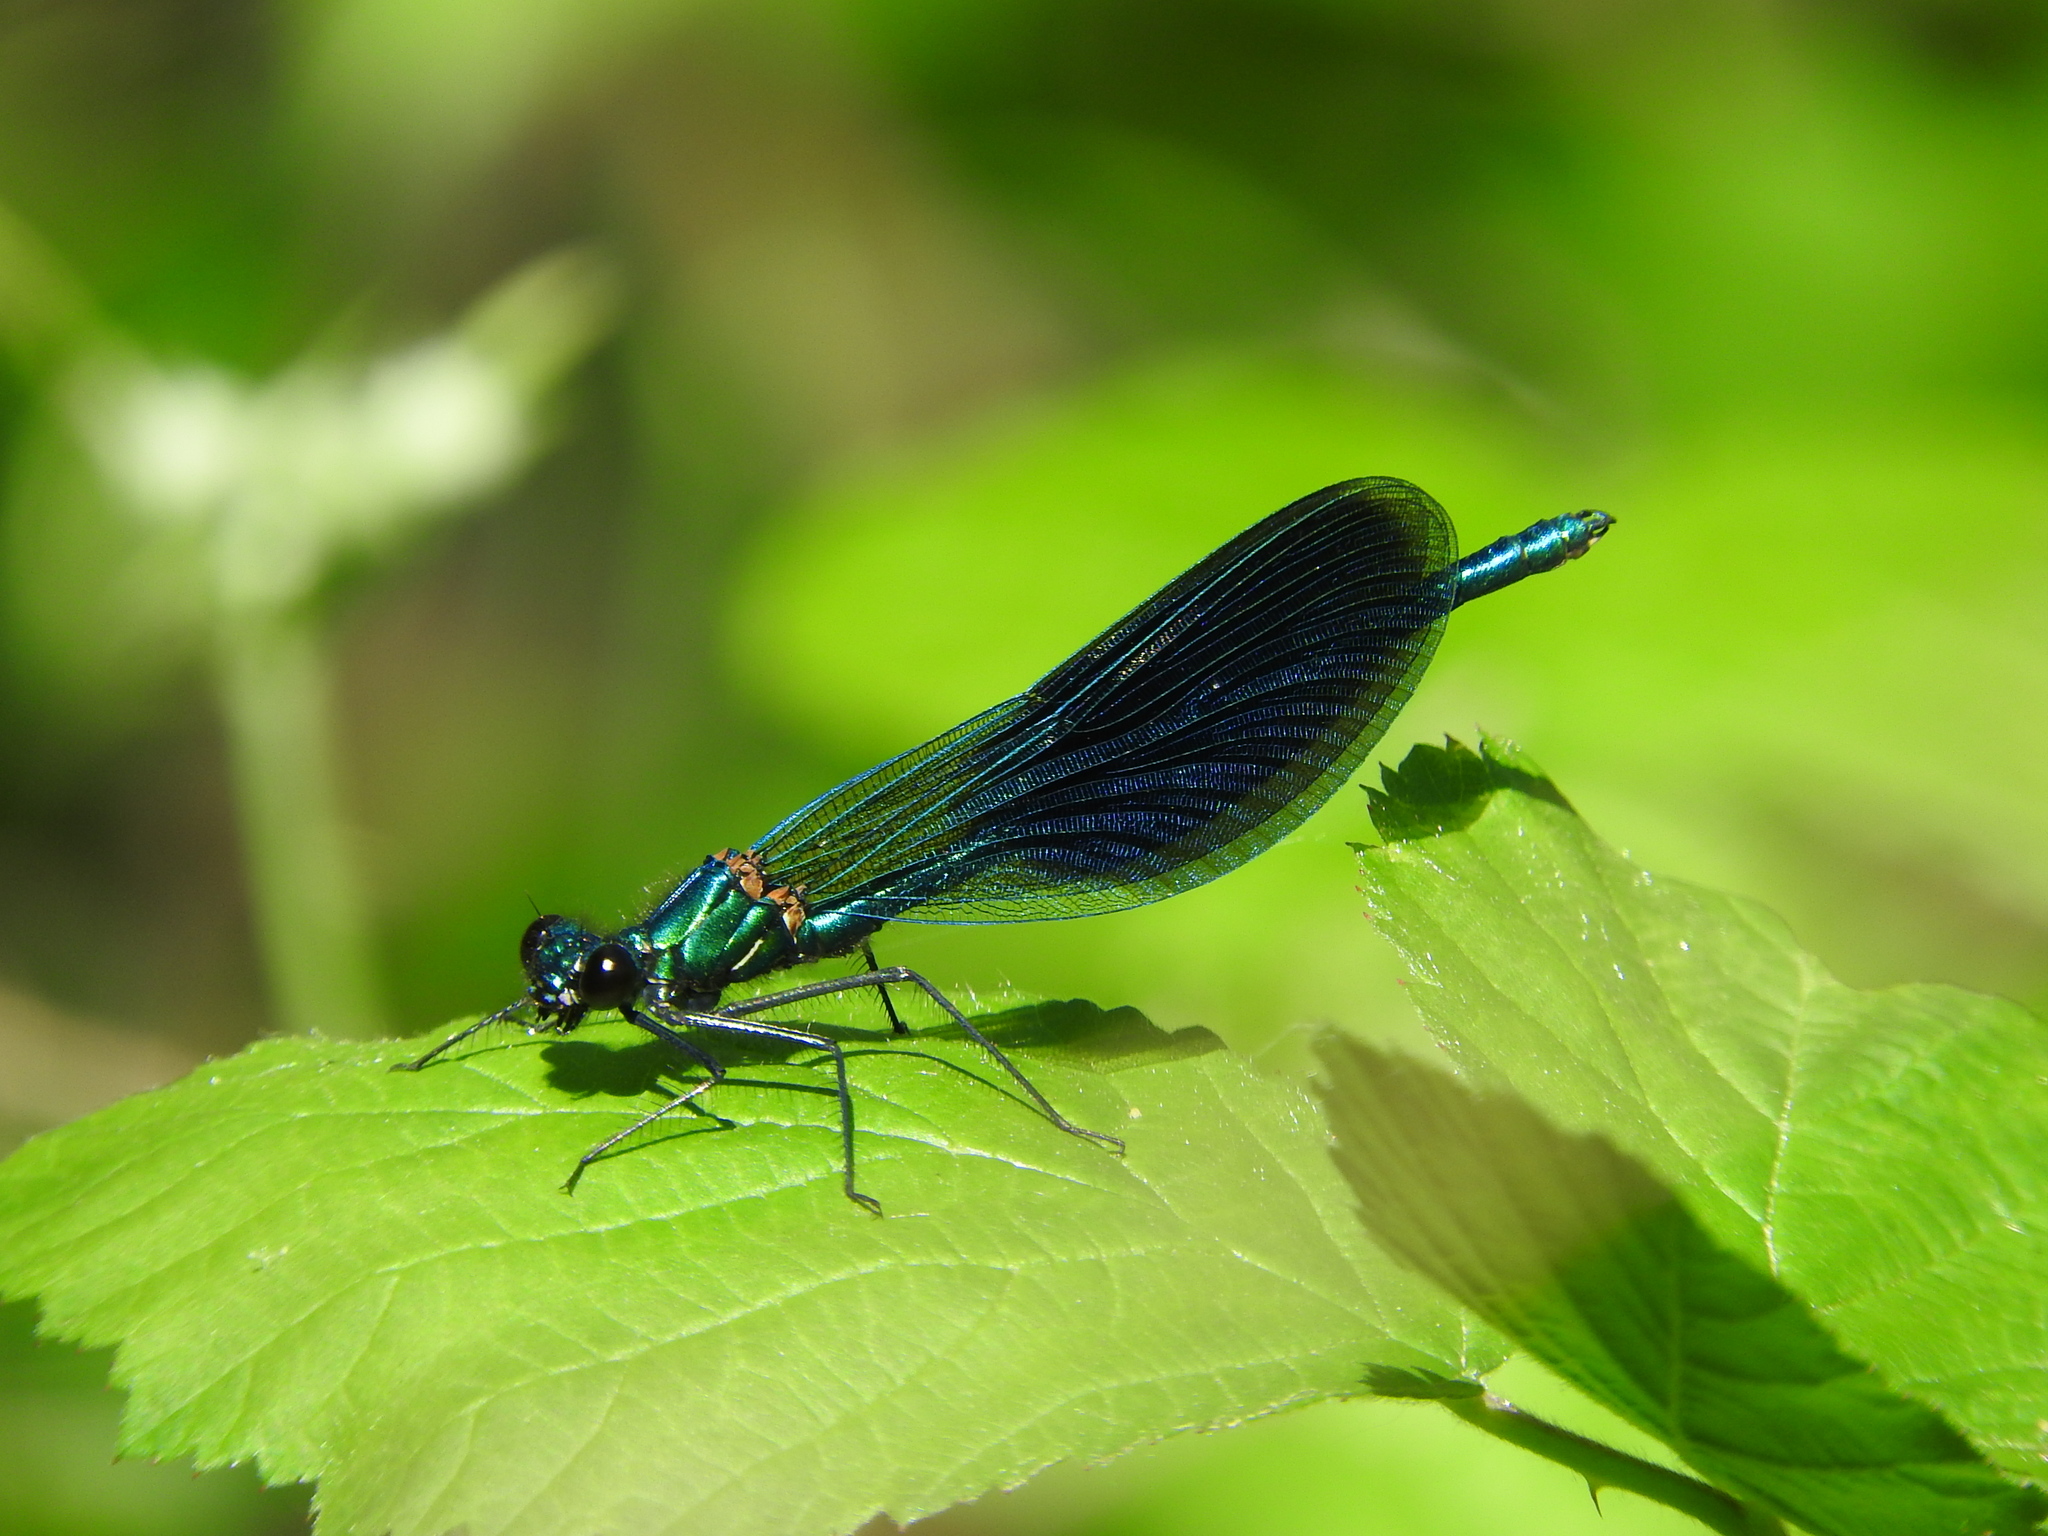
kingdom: Animalia
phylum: Arthropoda
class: Insecta
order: Odonata
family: Calopterygidae
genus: Calopteryx
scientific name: Calopteryx splendens
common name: Banded demoiselle
